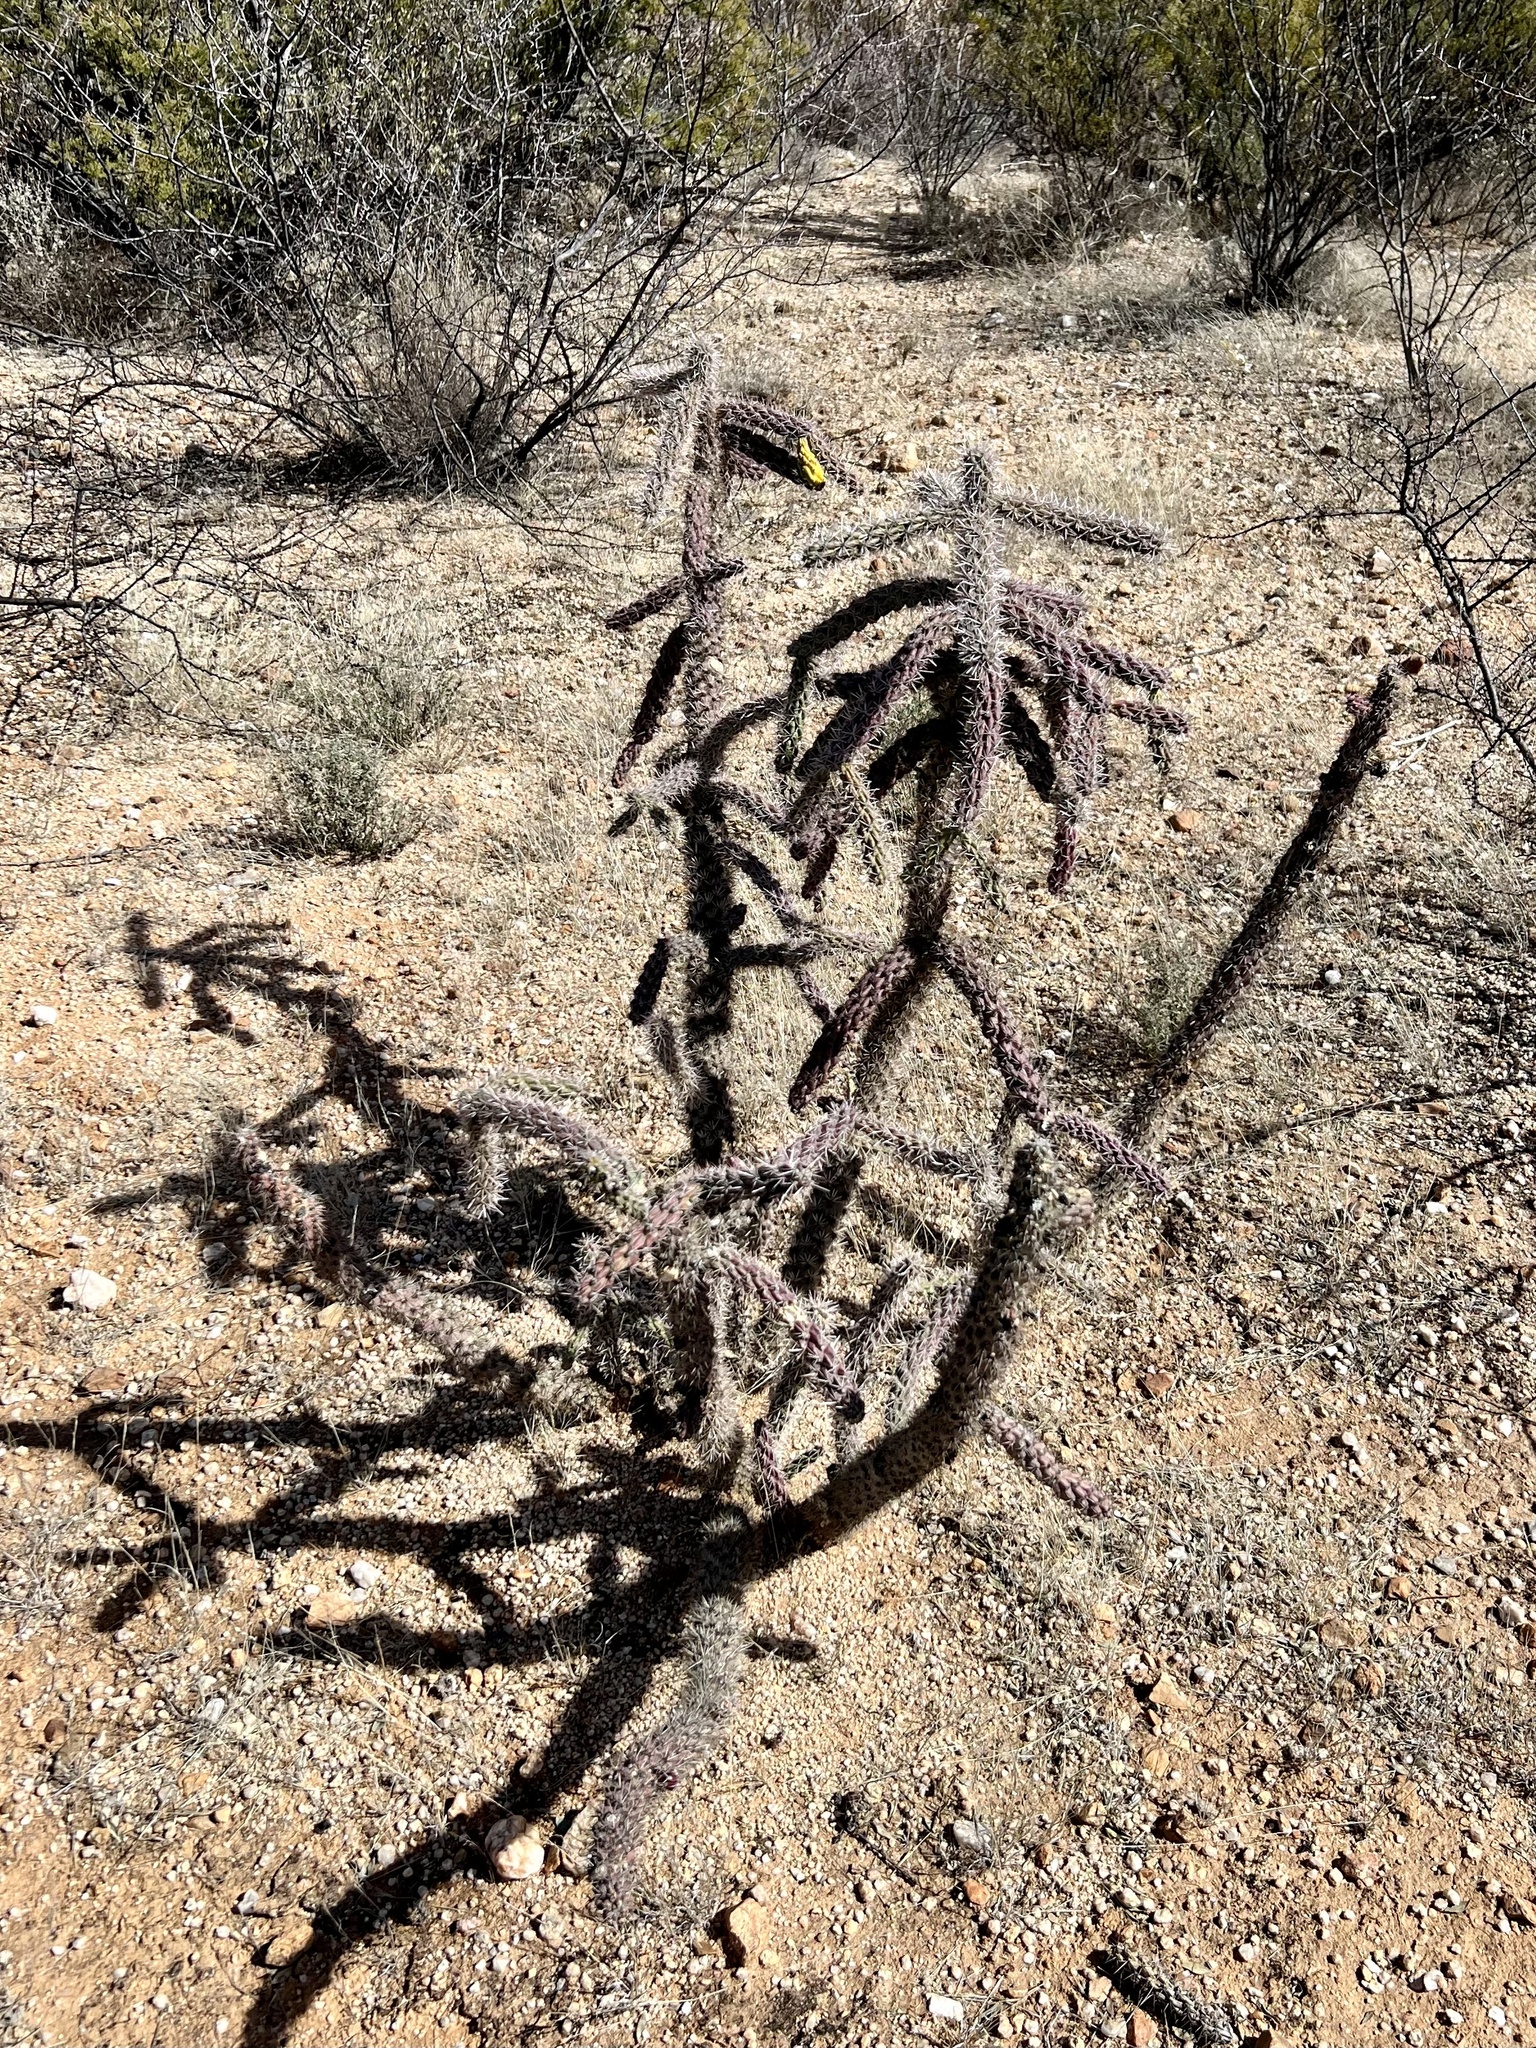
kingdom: Plantae
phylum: Tracheophyta
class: Magnoliopsida
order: Caryophyllales
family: Cactaceae
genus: Cylindropuntia
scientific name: Cylindropuntia imbricata
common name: Candelabrum cactus
